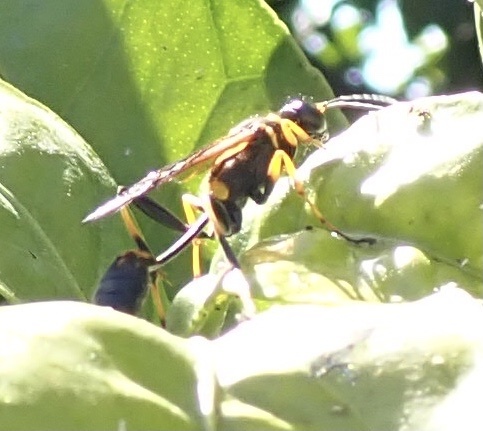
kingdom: Animalia
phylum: Arthropoda
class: Insecta
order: Hymenoptera
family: Sphecidae
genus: Sceliphron
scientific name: Sceliphron caementarium
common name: Mud dauber
